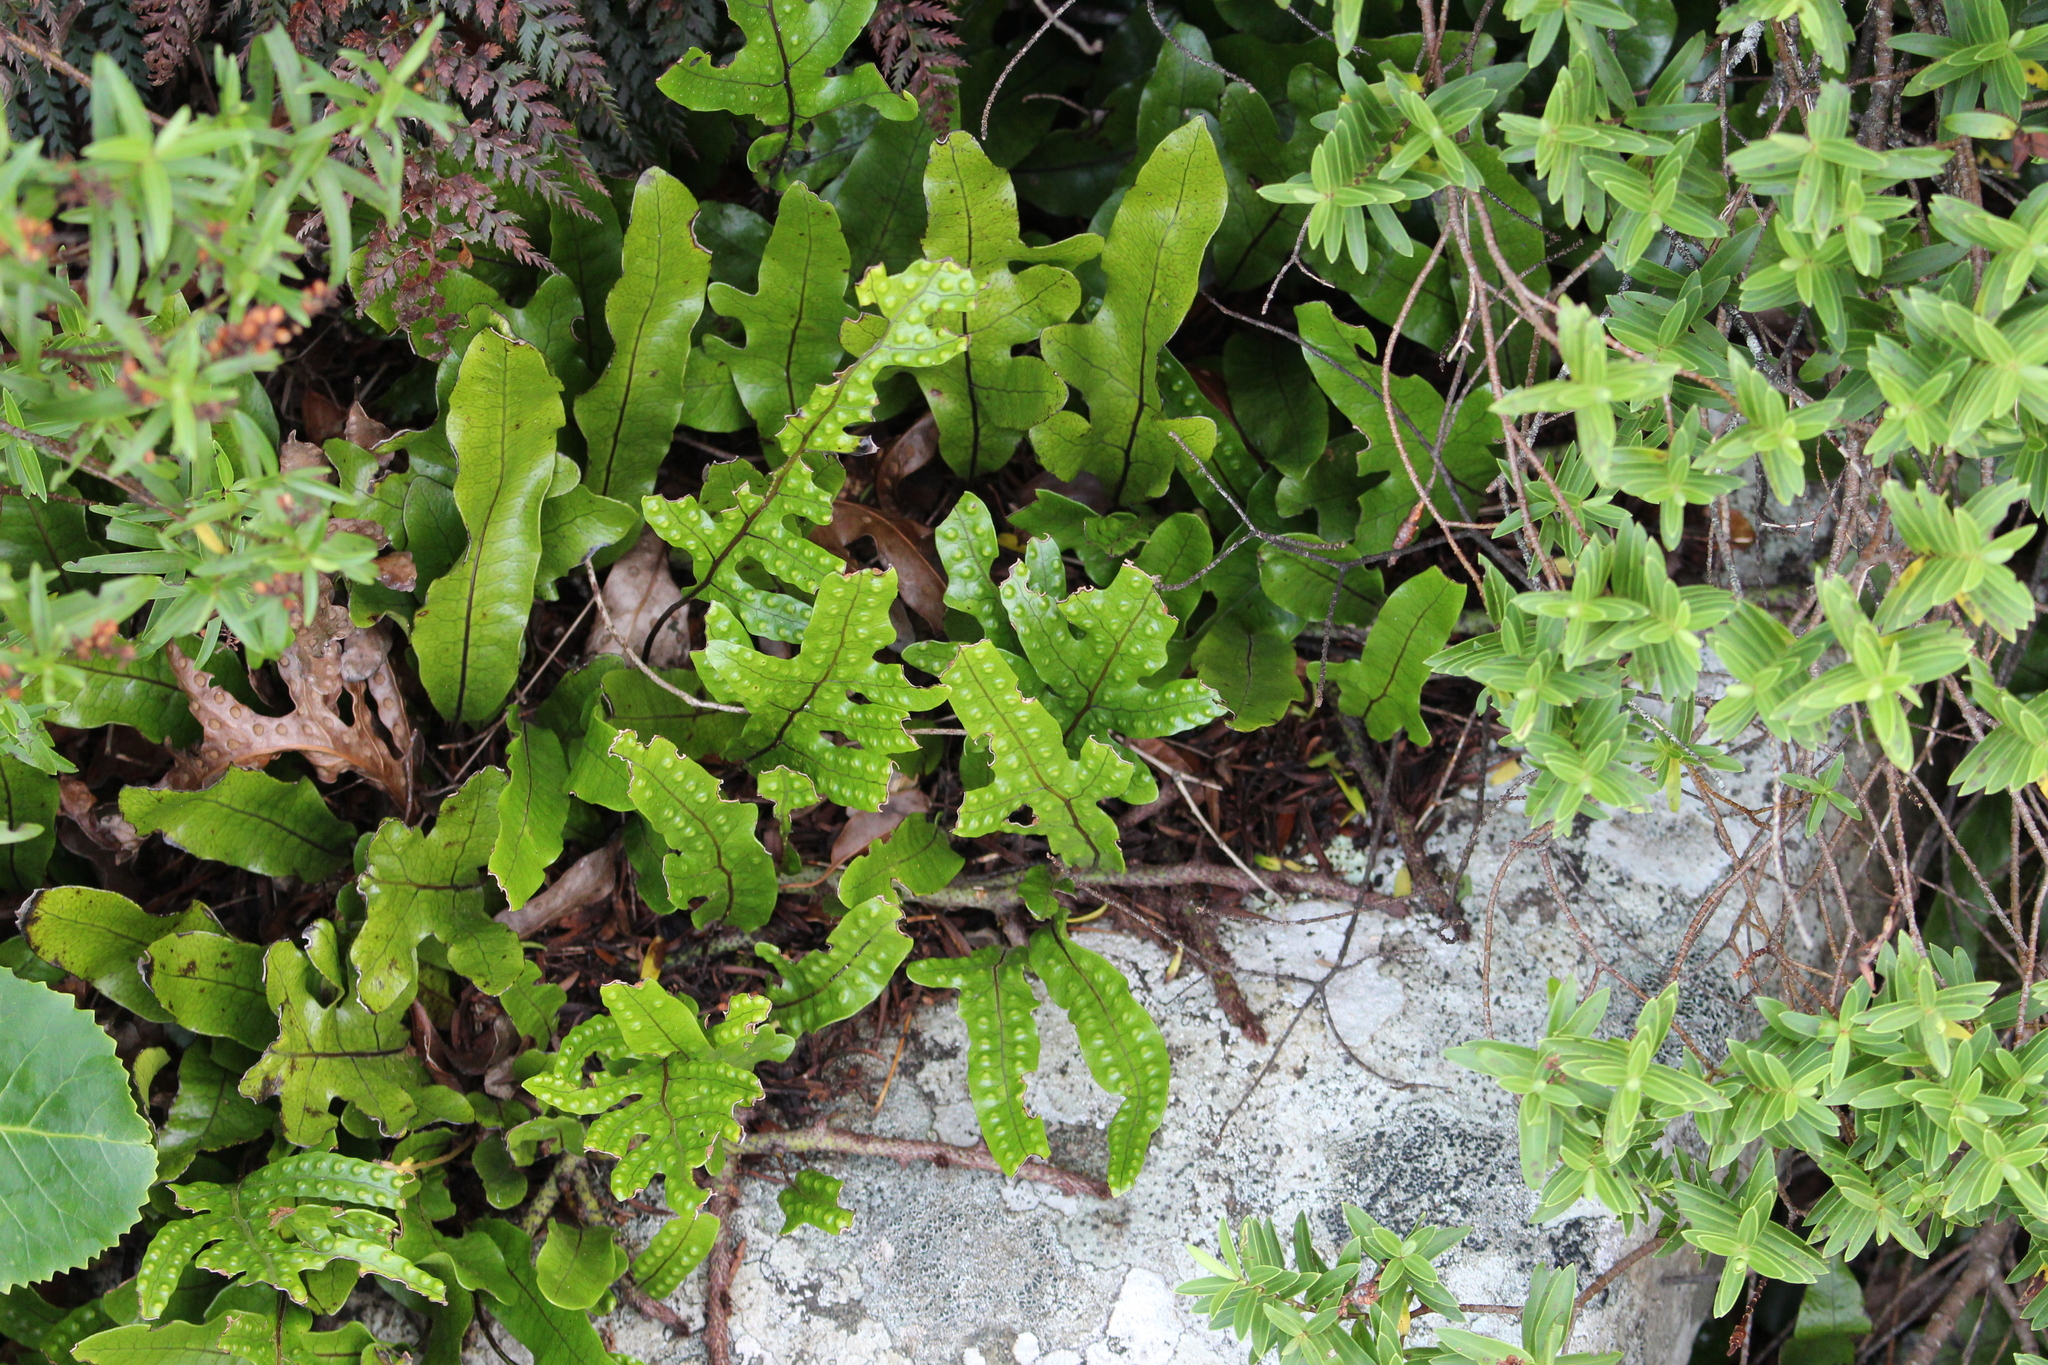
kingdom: Plantae
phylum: Tracheophyta
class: Polypodiopsida
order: Polypodiales
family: Polypodiaceae
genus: Lecanopteris
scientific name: Lecanopteris pustulata
